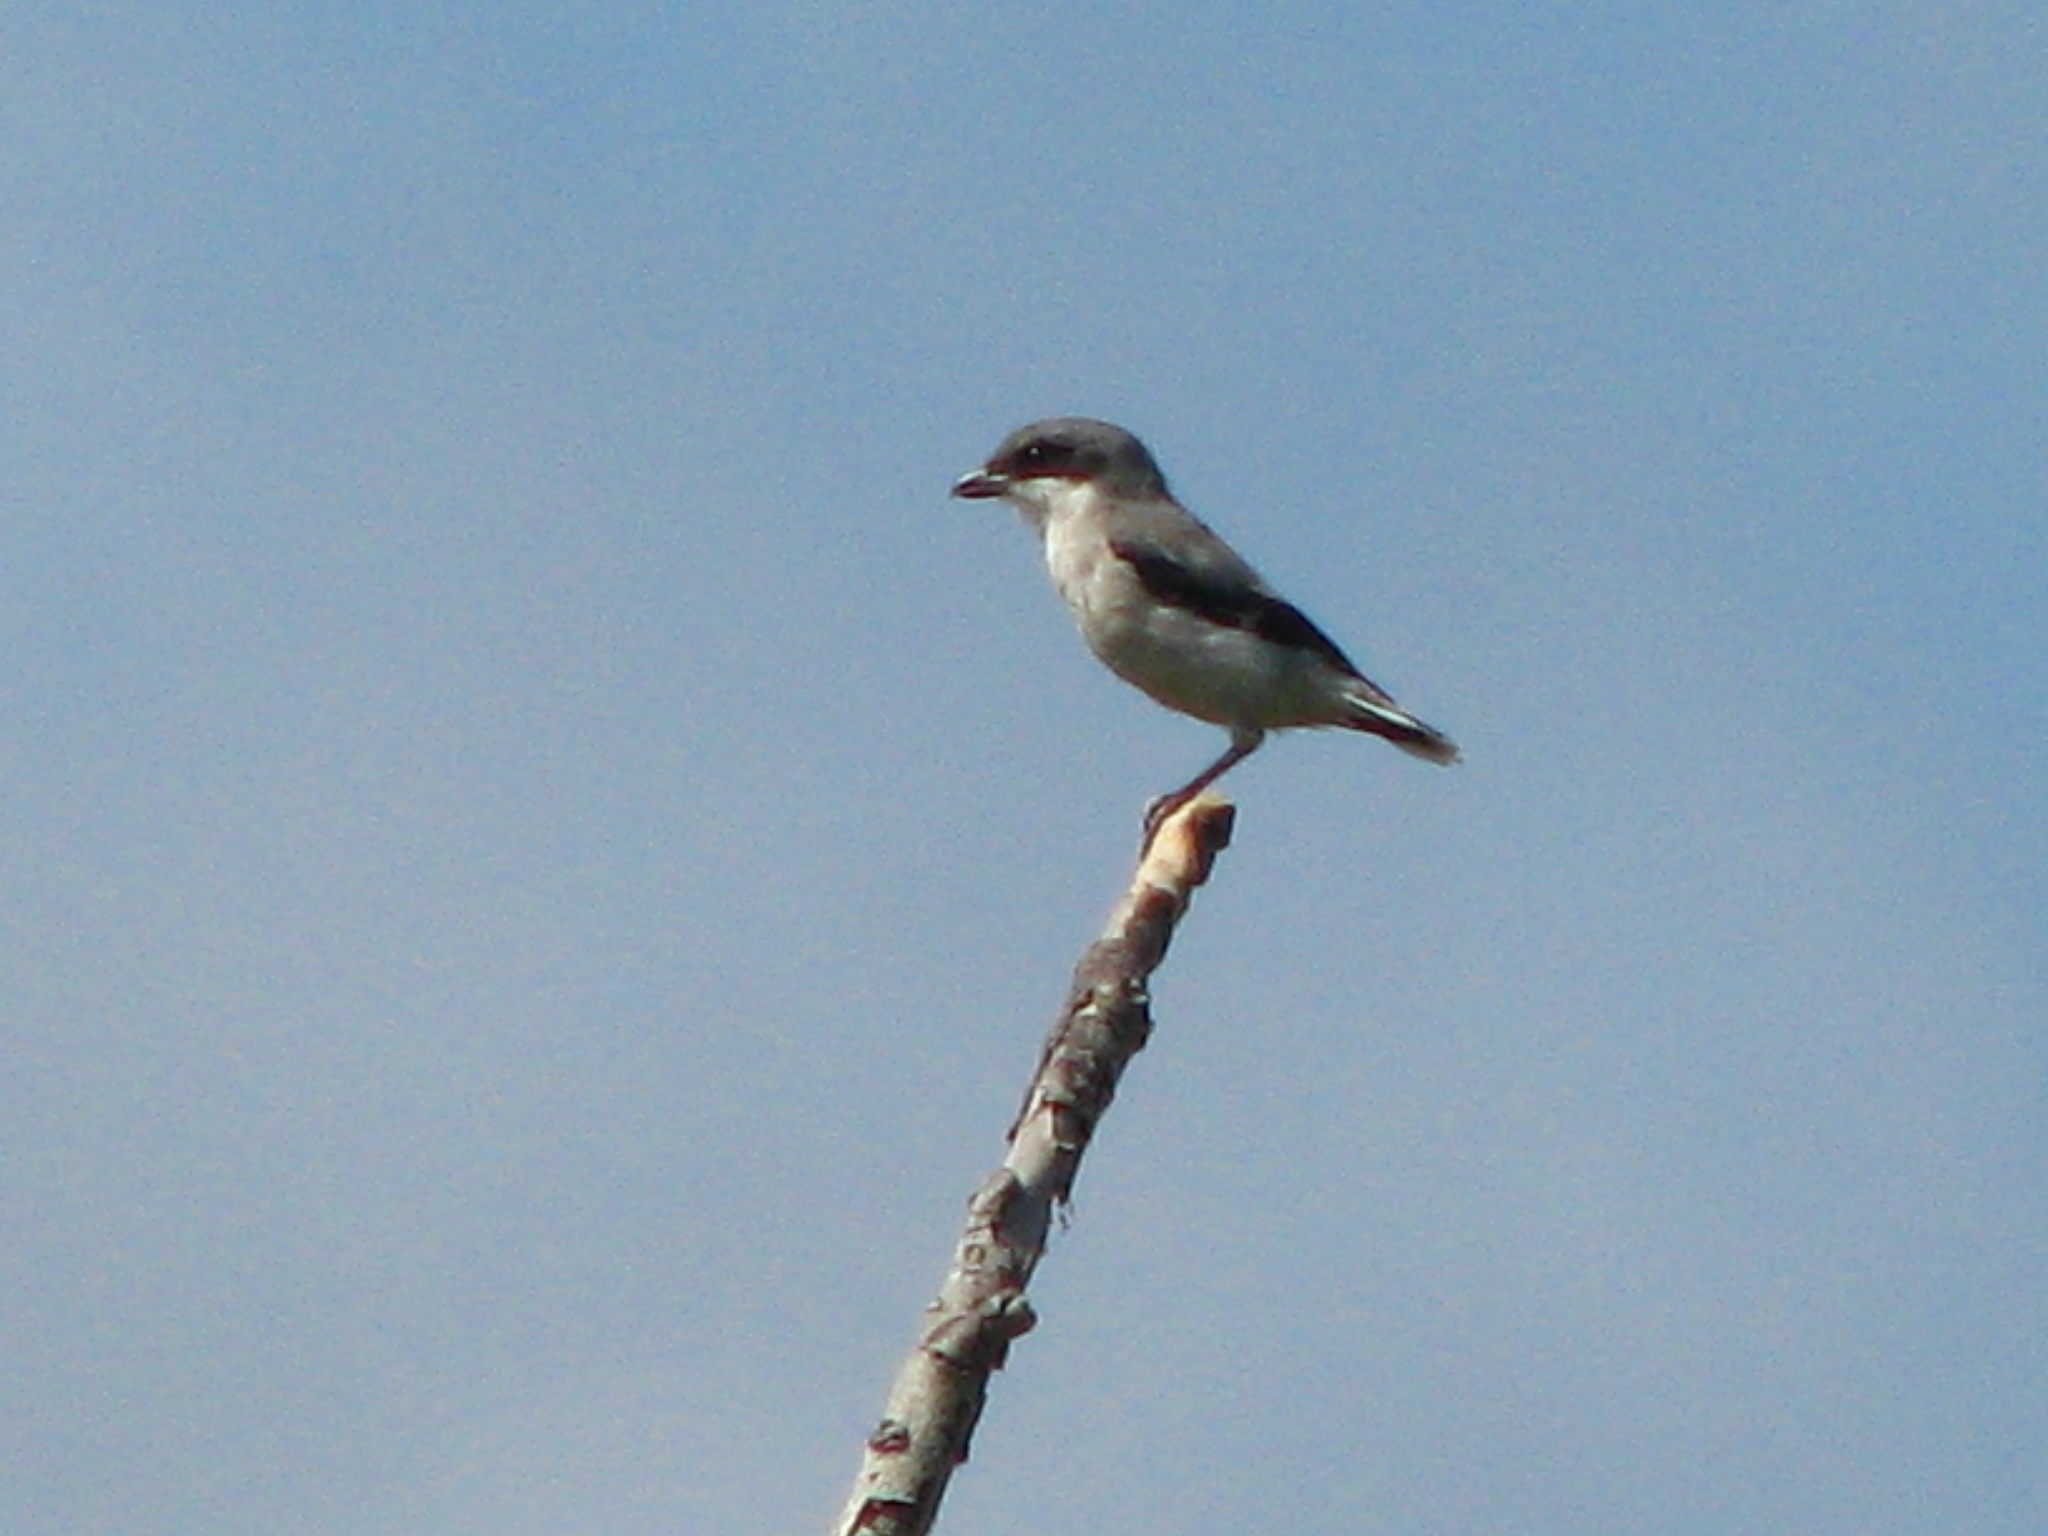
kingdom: Animalia
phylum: Chordata
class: Aves
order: Passeriformes
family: Laniidae
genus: Lanius
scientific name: Lanius ludovicianus
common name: Loggerhead shrike
